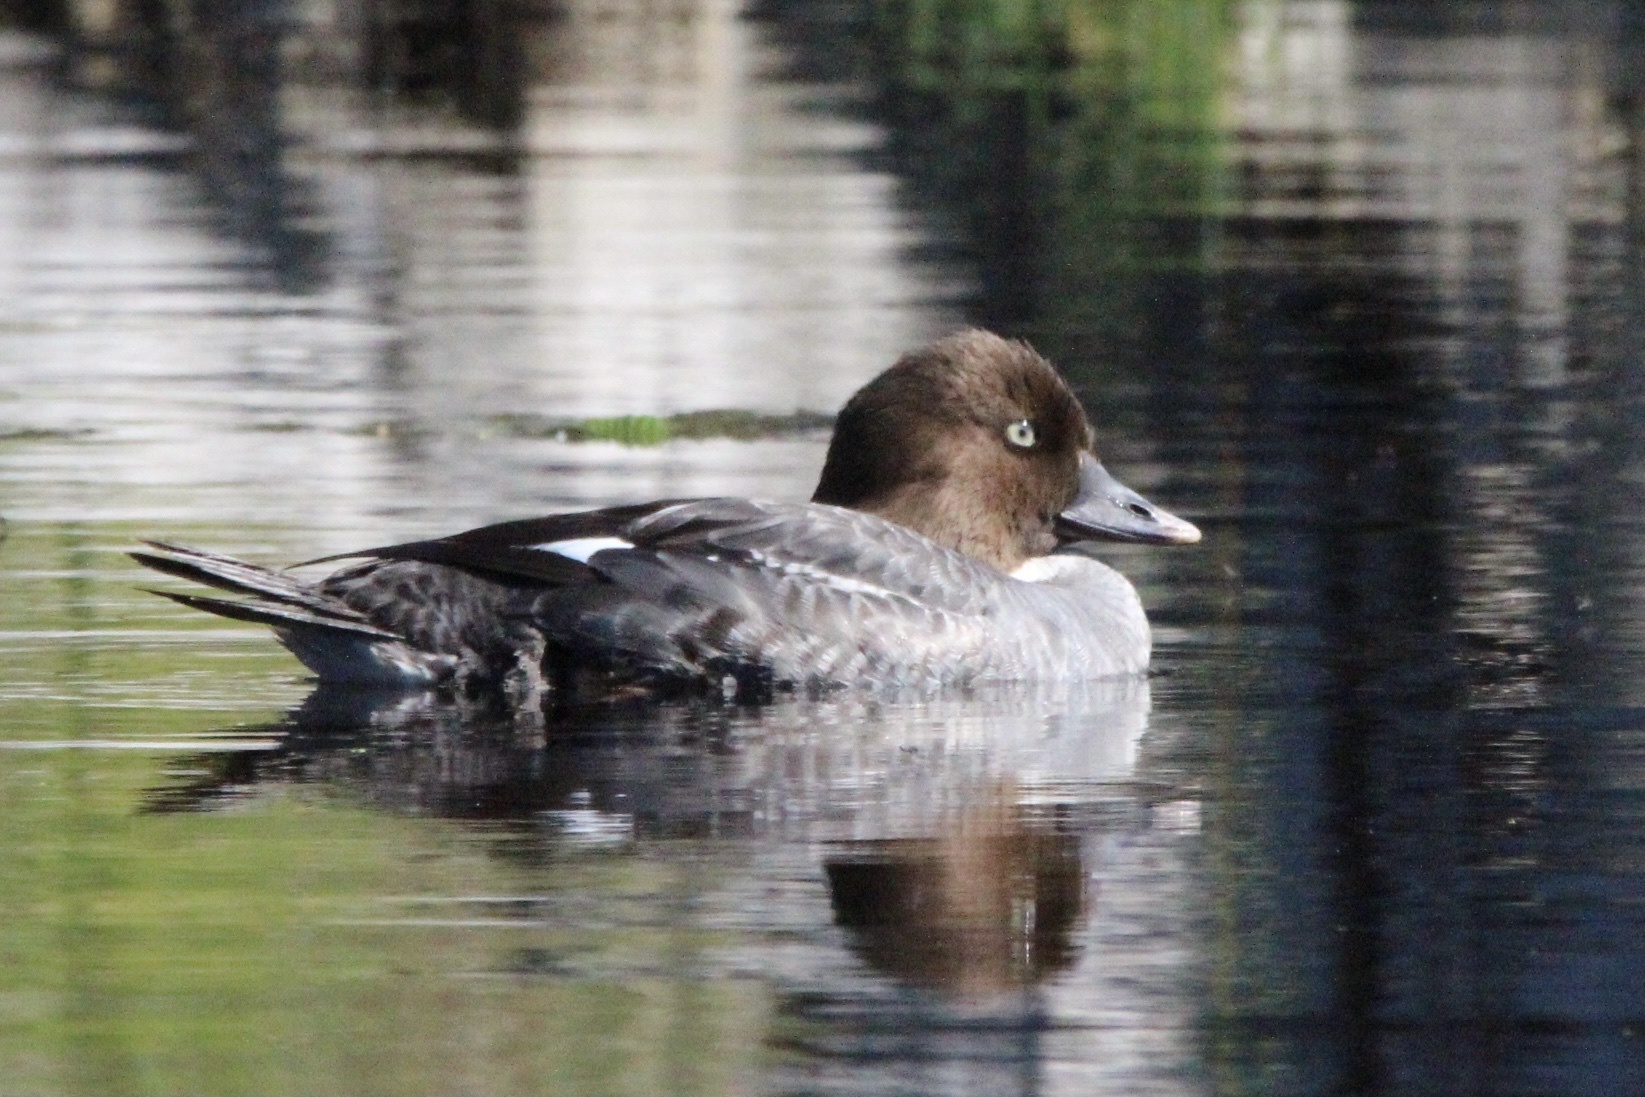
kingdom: Animalia
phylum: Chordata
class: Aves
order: Anseriformes
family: Anatidae
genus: Bucephala
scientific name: Bucephala clangula
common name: Common goldeneye
